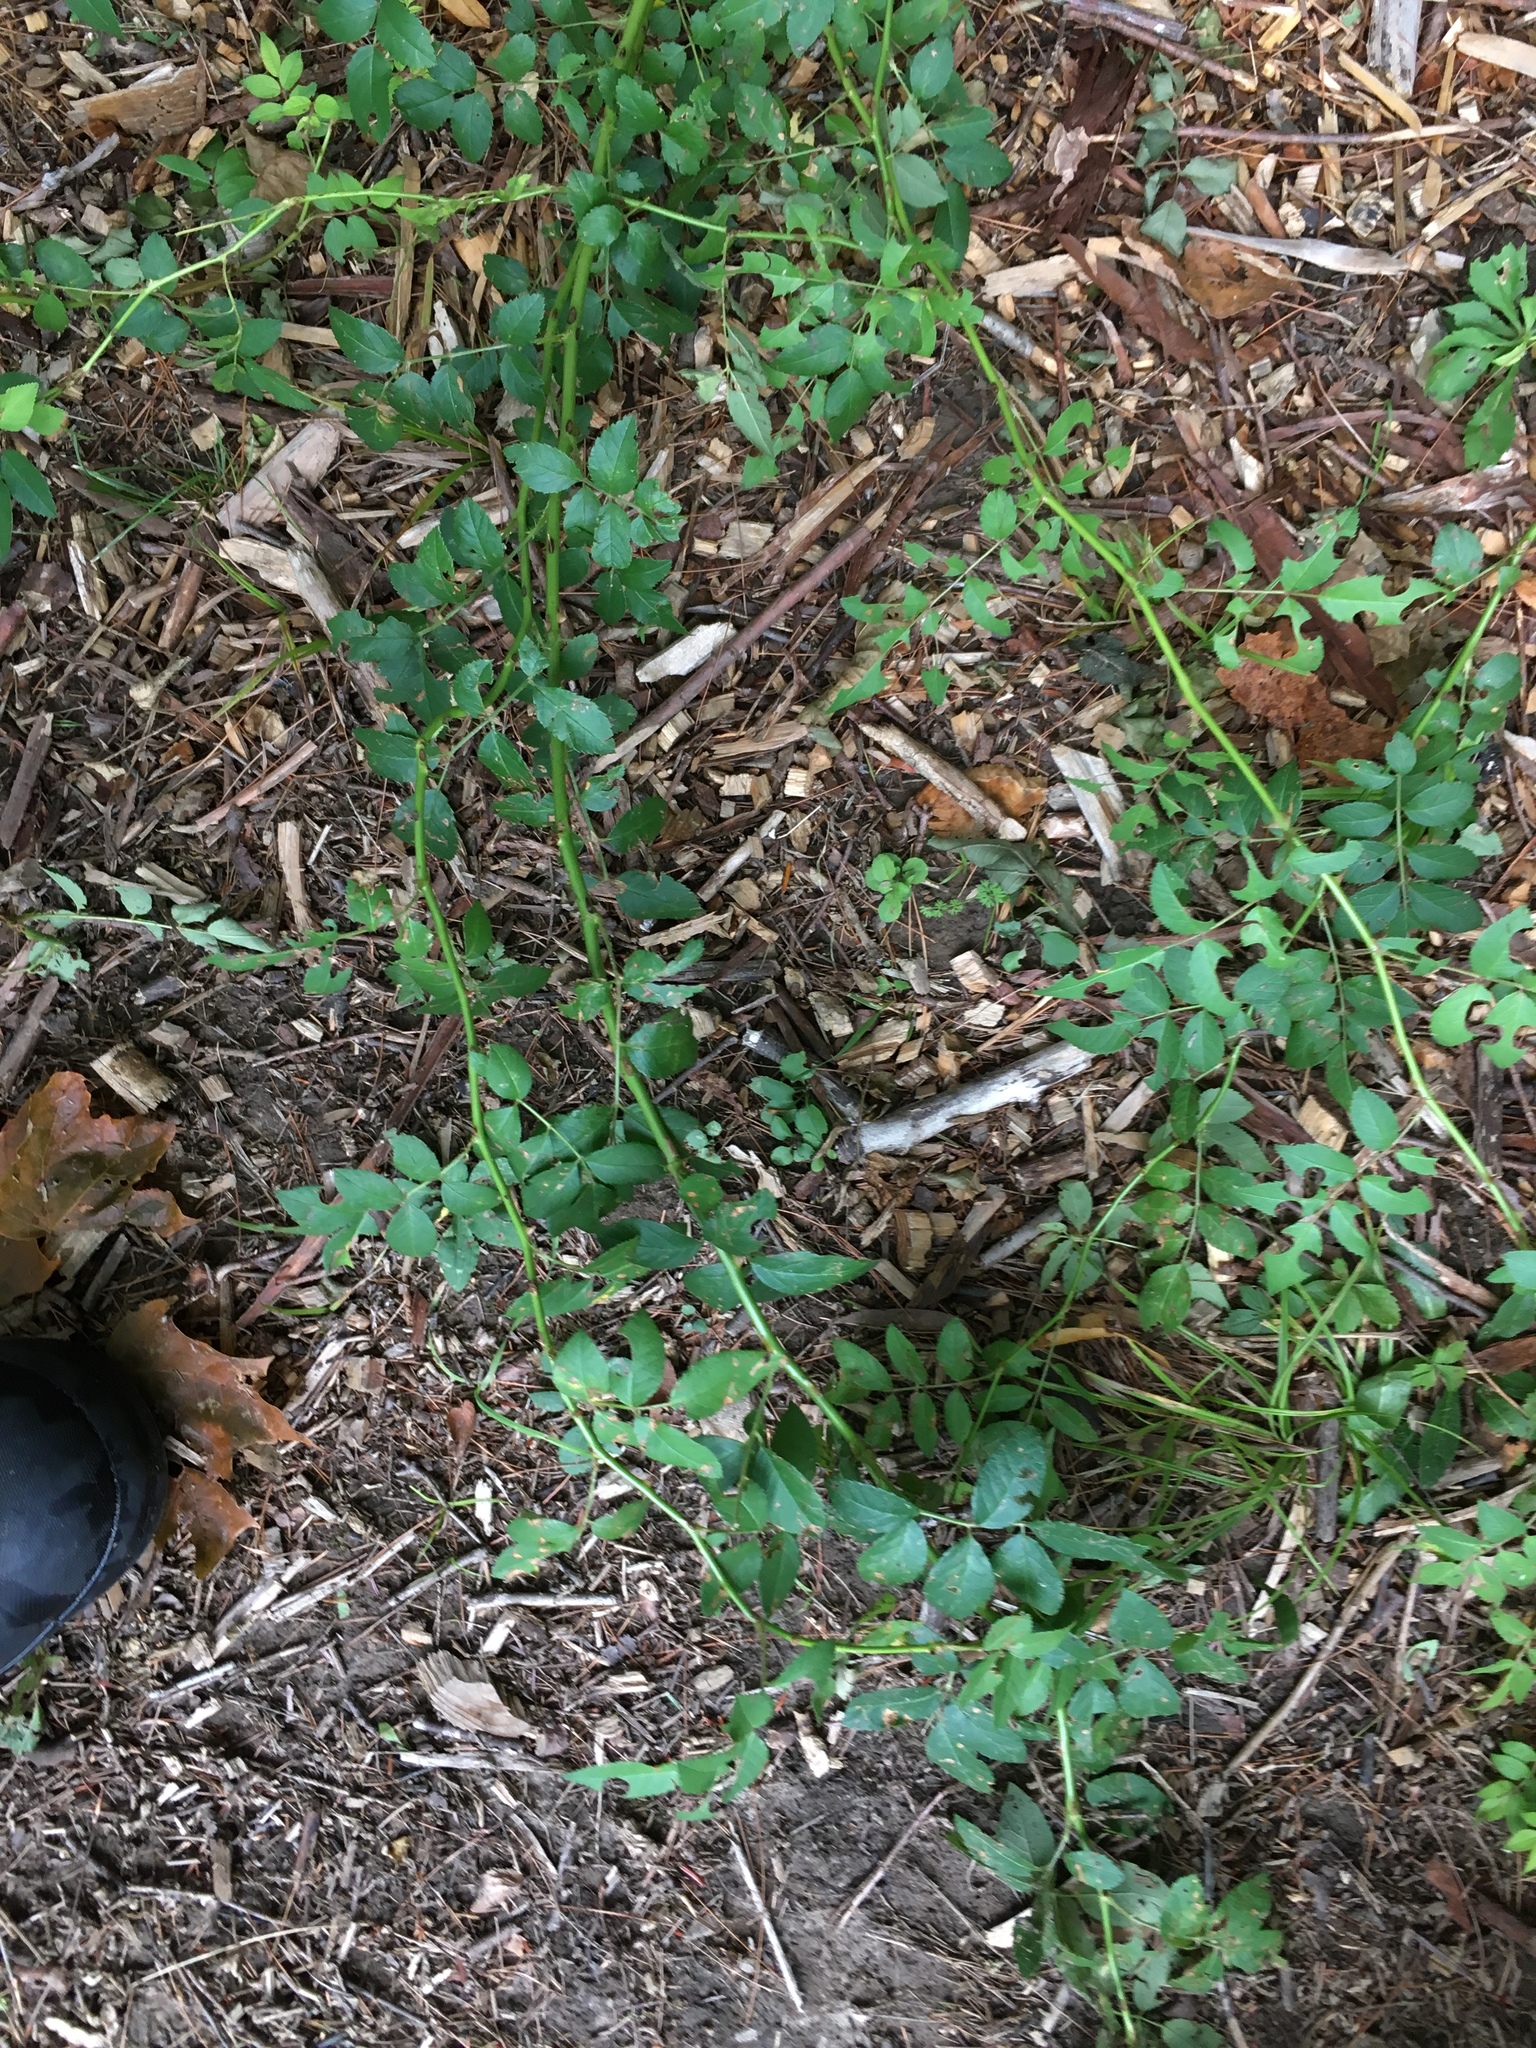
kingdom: Plantae
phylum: Tracheophyta
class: Magnoliopsida
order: Rosales
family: Rosaceae
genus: Rosa
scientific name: Rosa multiflora
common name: Multiflora rose
